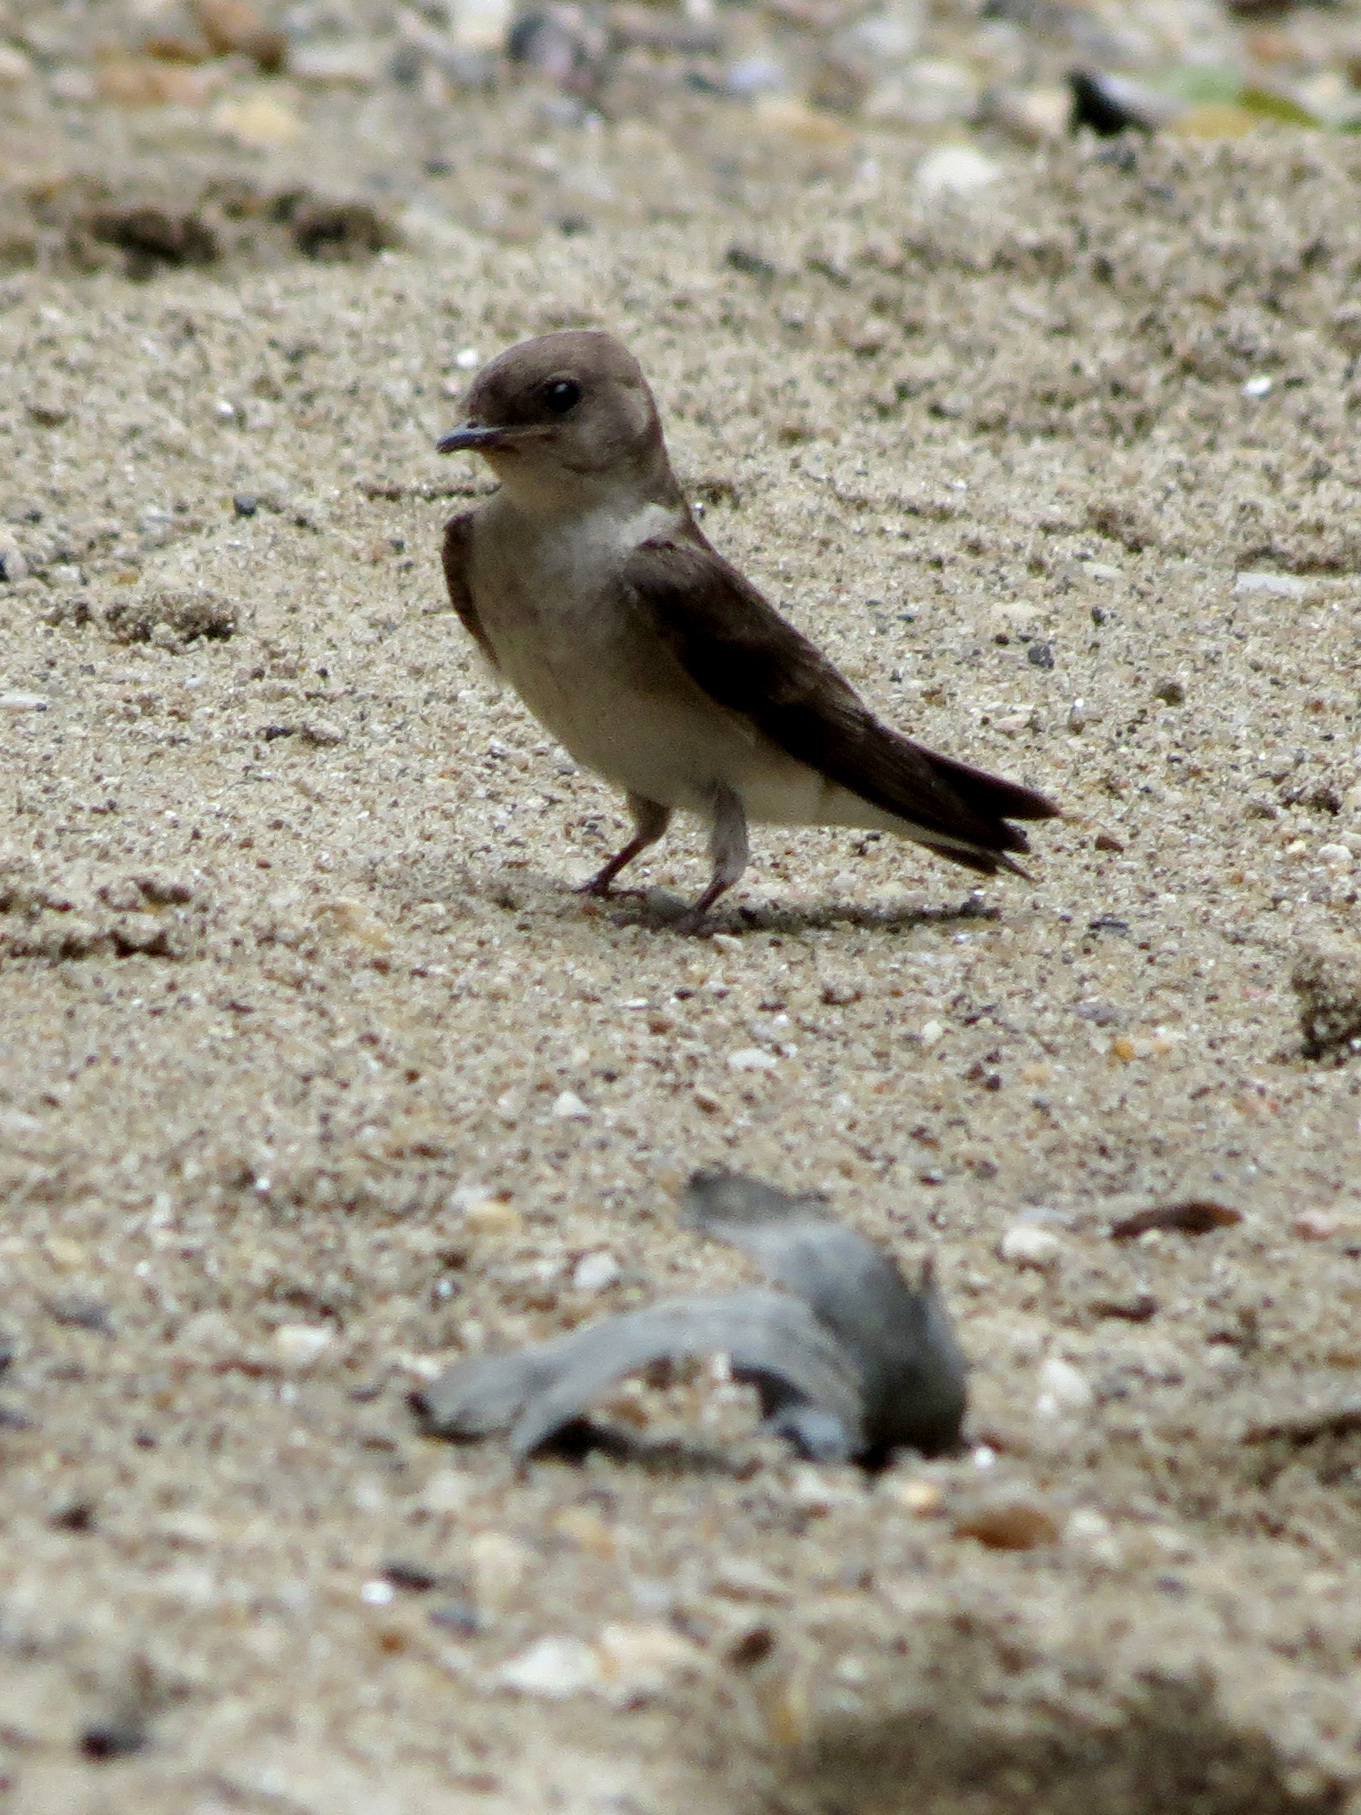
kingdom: Animalia
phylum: Chordata
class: Aves
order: Passeriformes
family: Hirundinidae
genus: Stelgidopteryx
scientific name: Stelgidopteryx serripennis
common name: Northern rough-winged swallow
